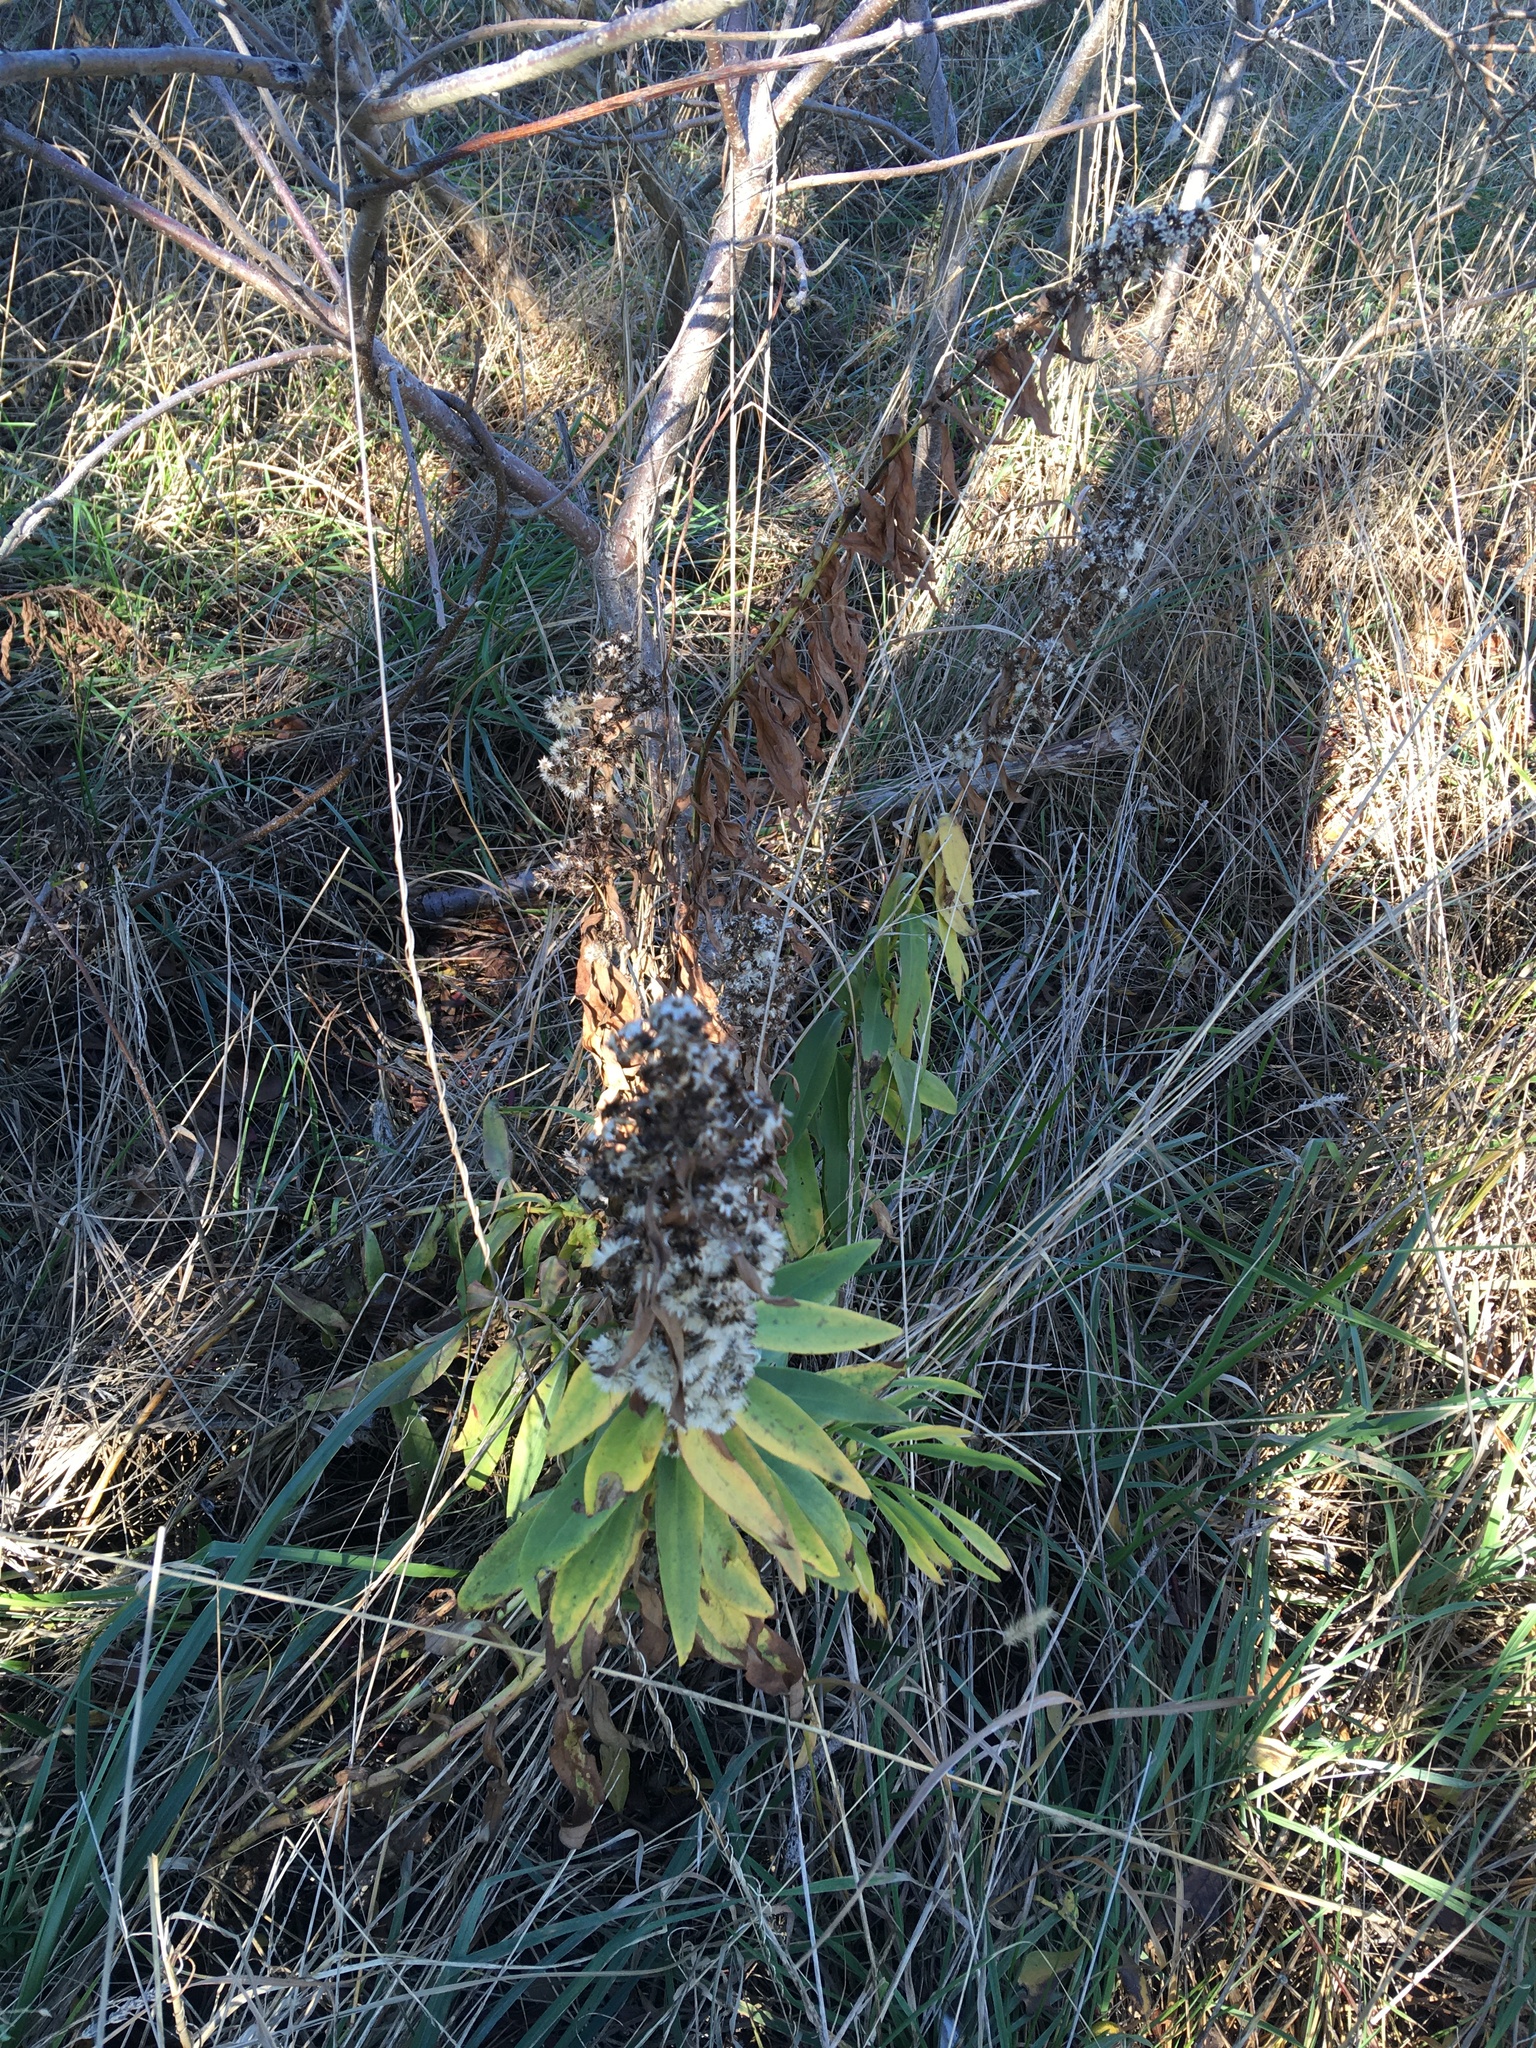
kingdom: Plantae
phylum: Tracheophyta
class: Magnoliopsida
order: Asterales
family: Asteraceae
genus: Solidago
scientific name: Solidago sempervirens
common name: Salt-marsh goldenrod
